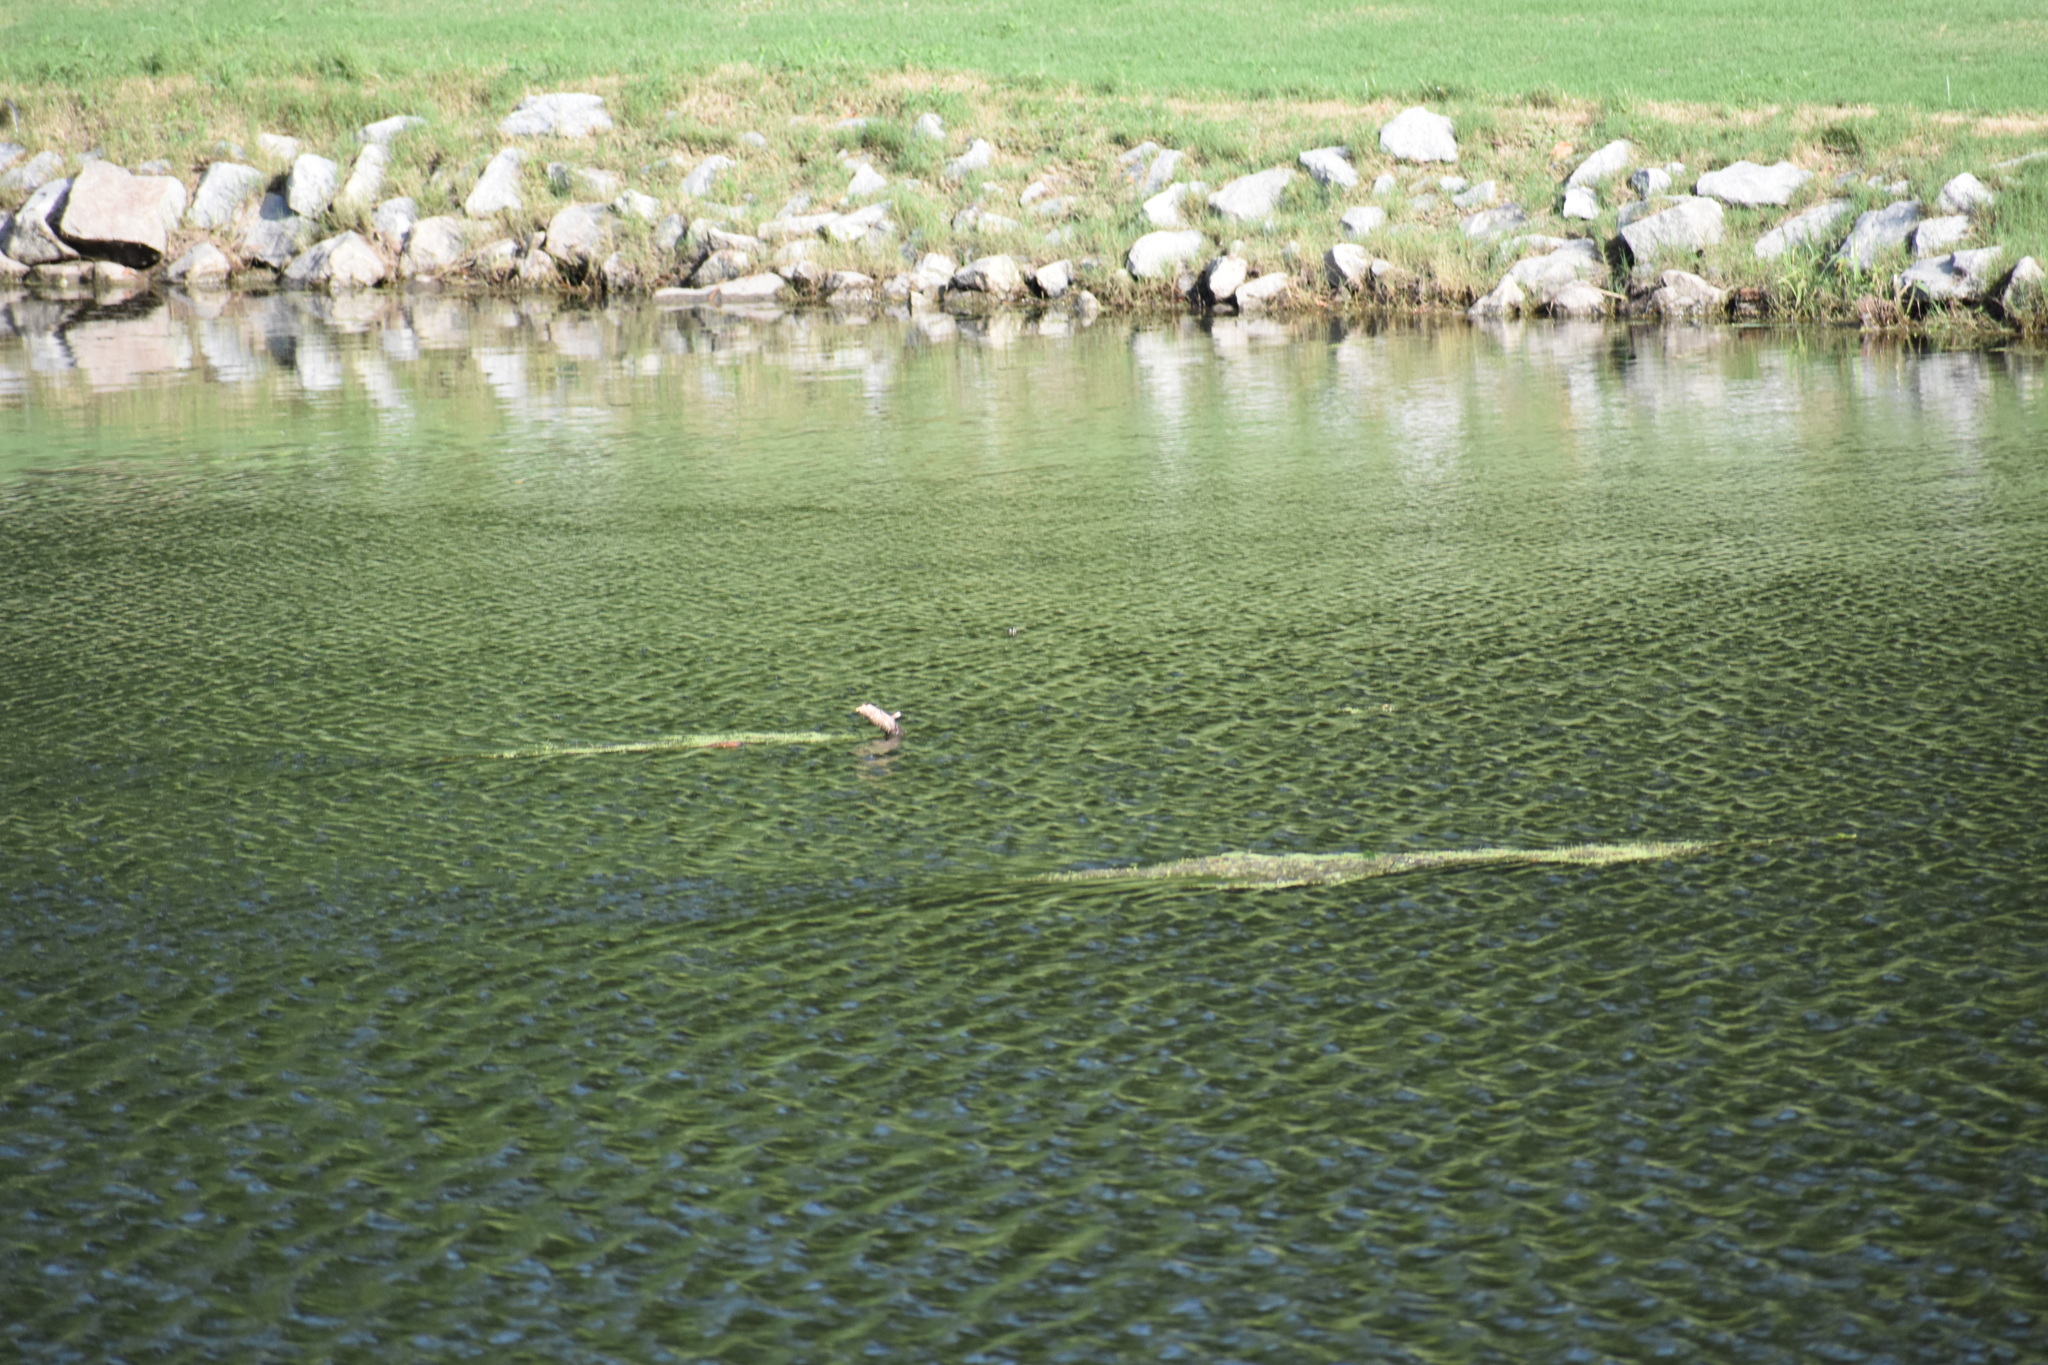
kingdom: Animalia
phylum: Chordata
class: Testudines
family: Emydidae
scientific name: Emydidae
